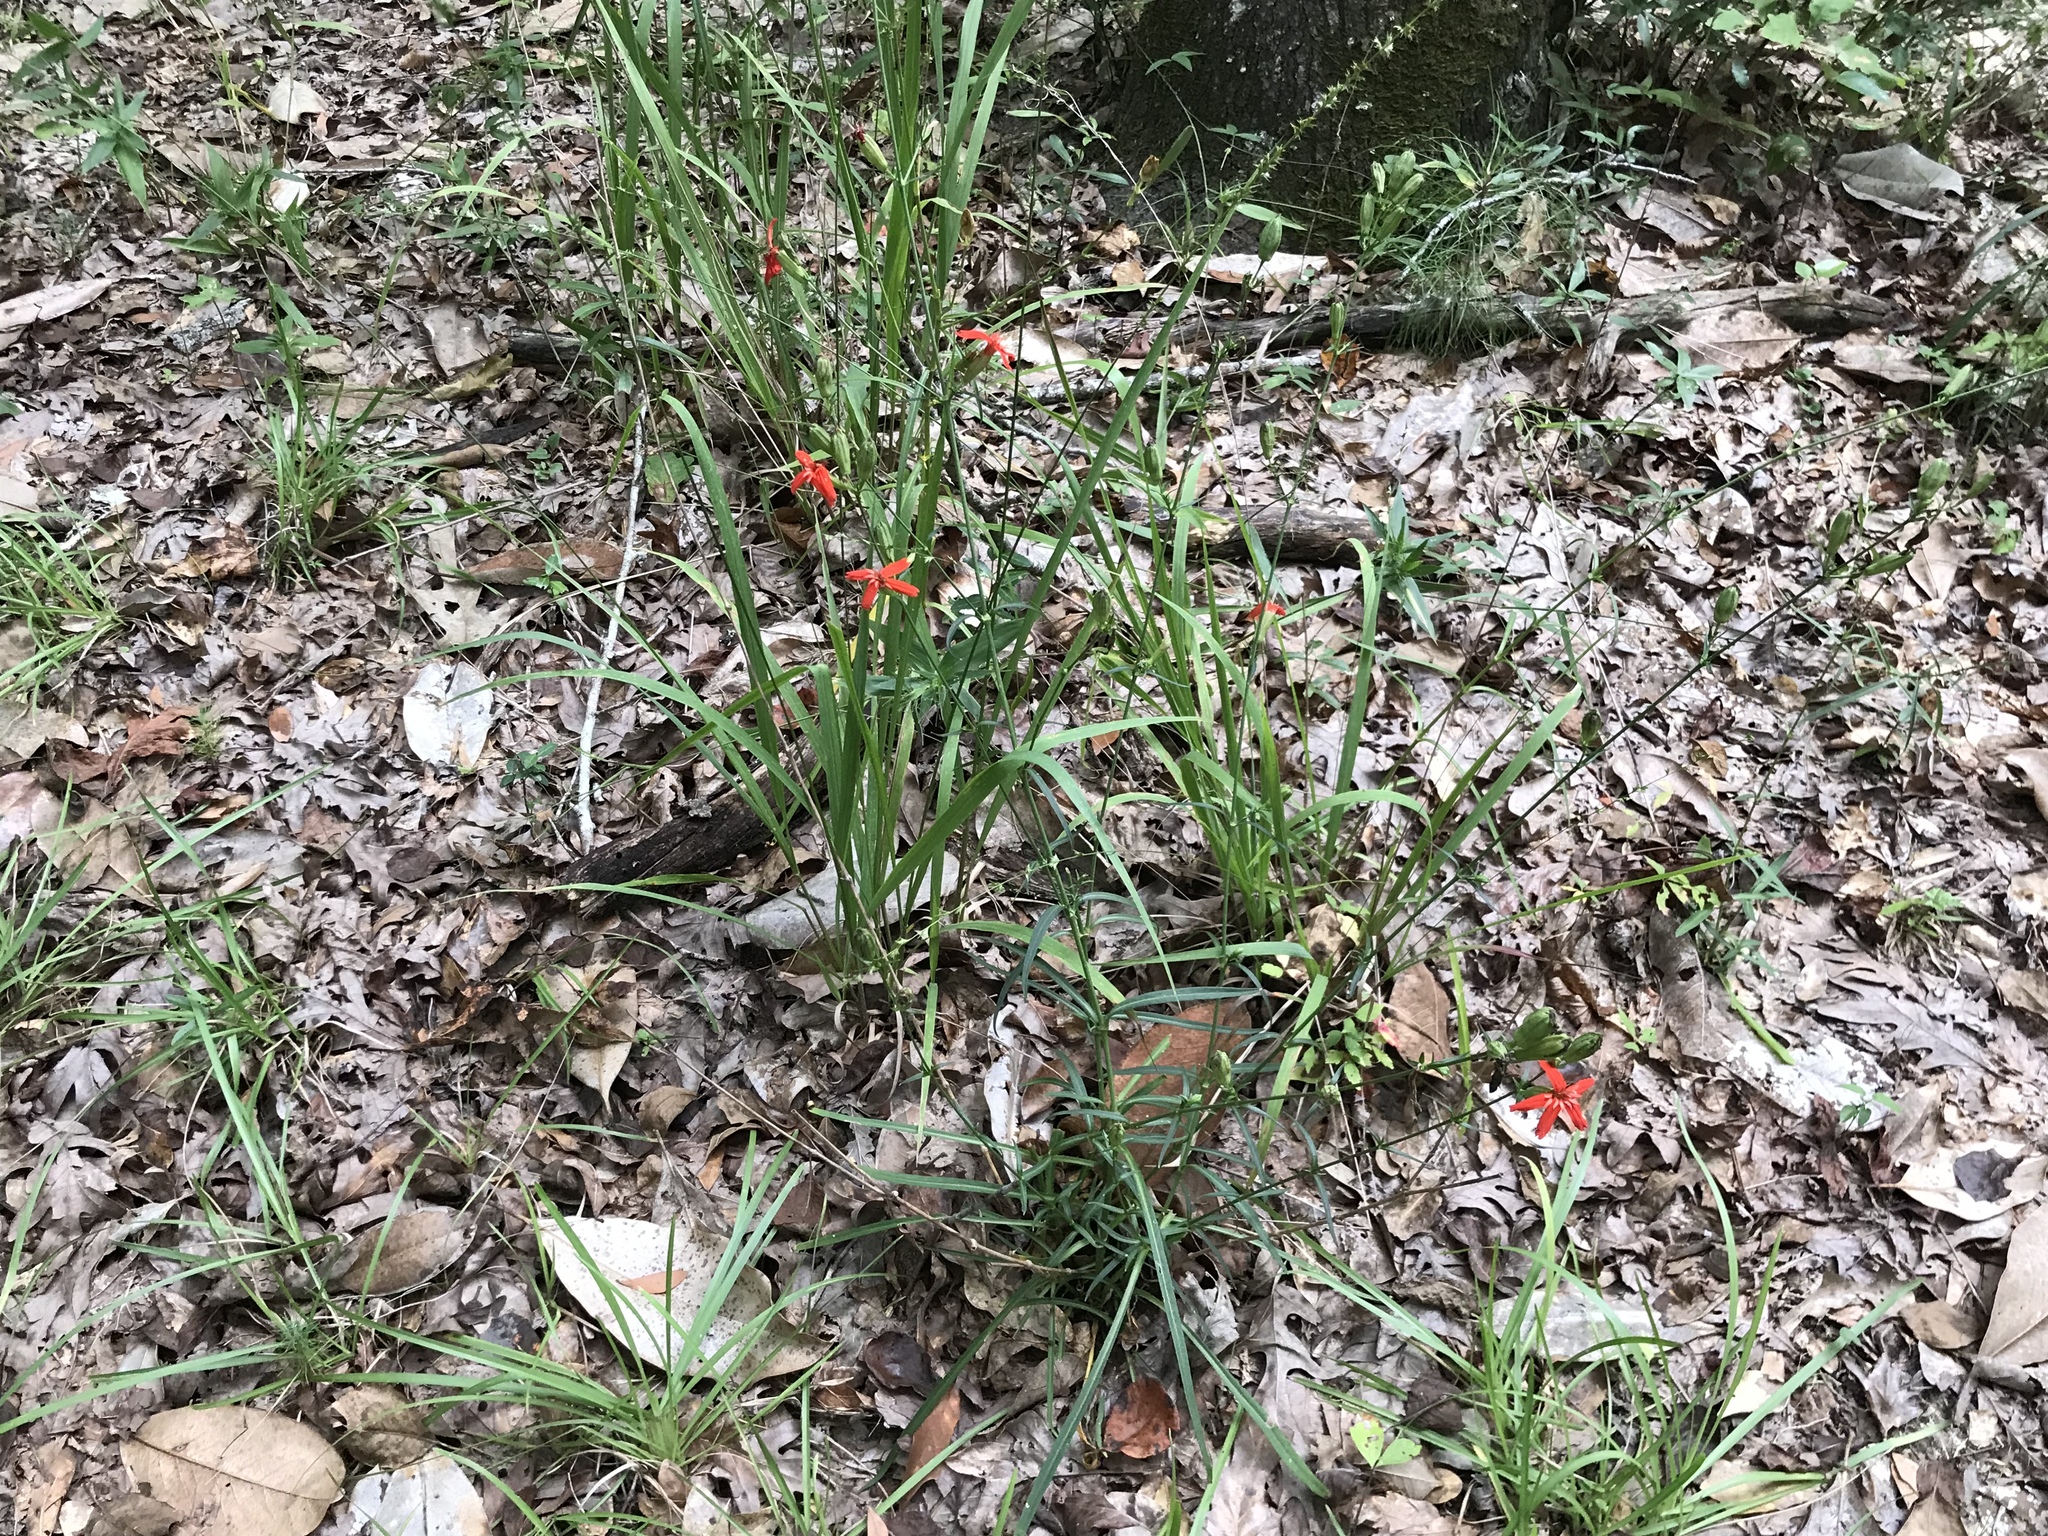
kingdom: Plantae
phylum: Tracheophyta
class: Magnoliopsida
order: Caryophyllales
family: Caryophyllaceae
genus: Silene
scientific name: Silene subciliata
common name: Prairie fire-pink
